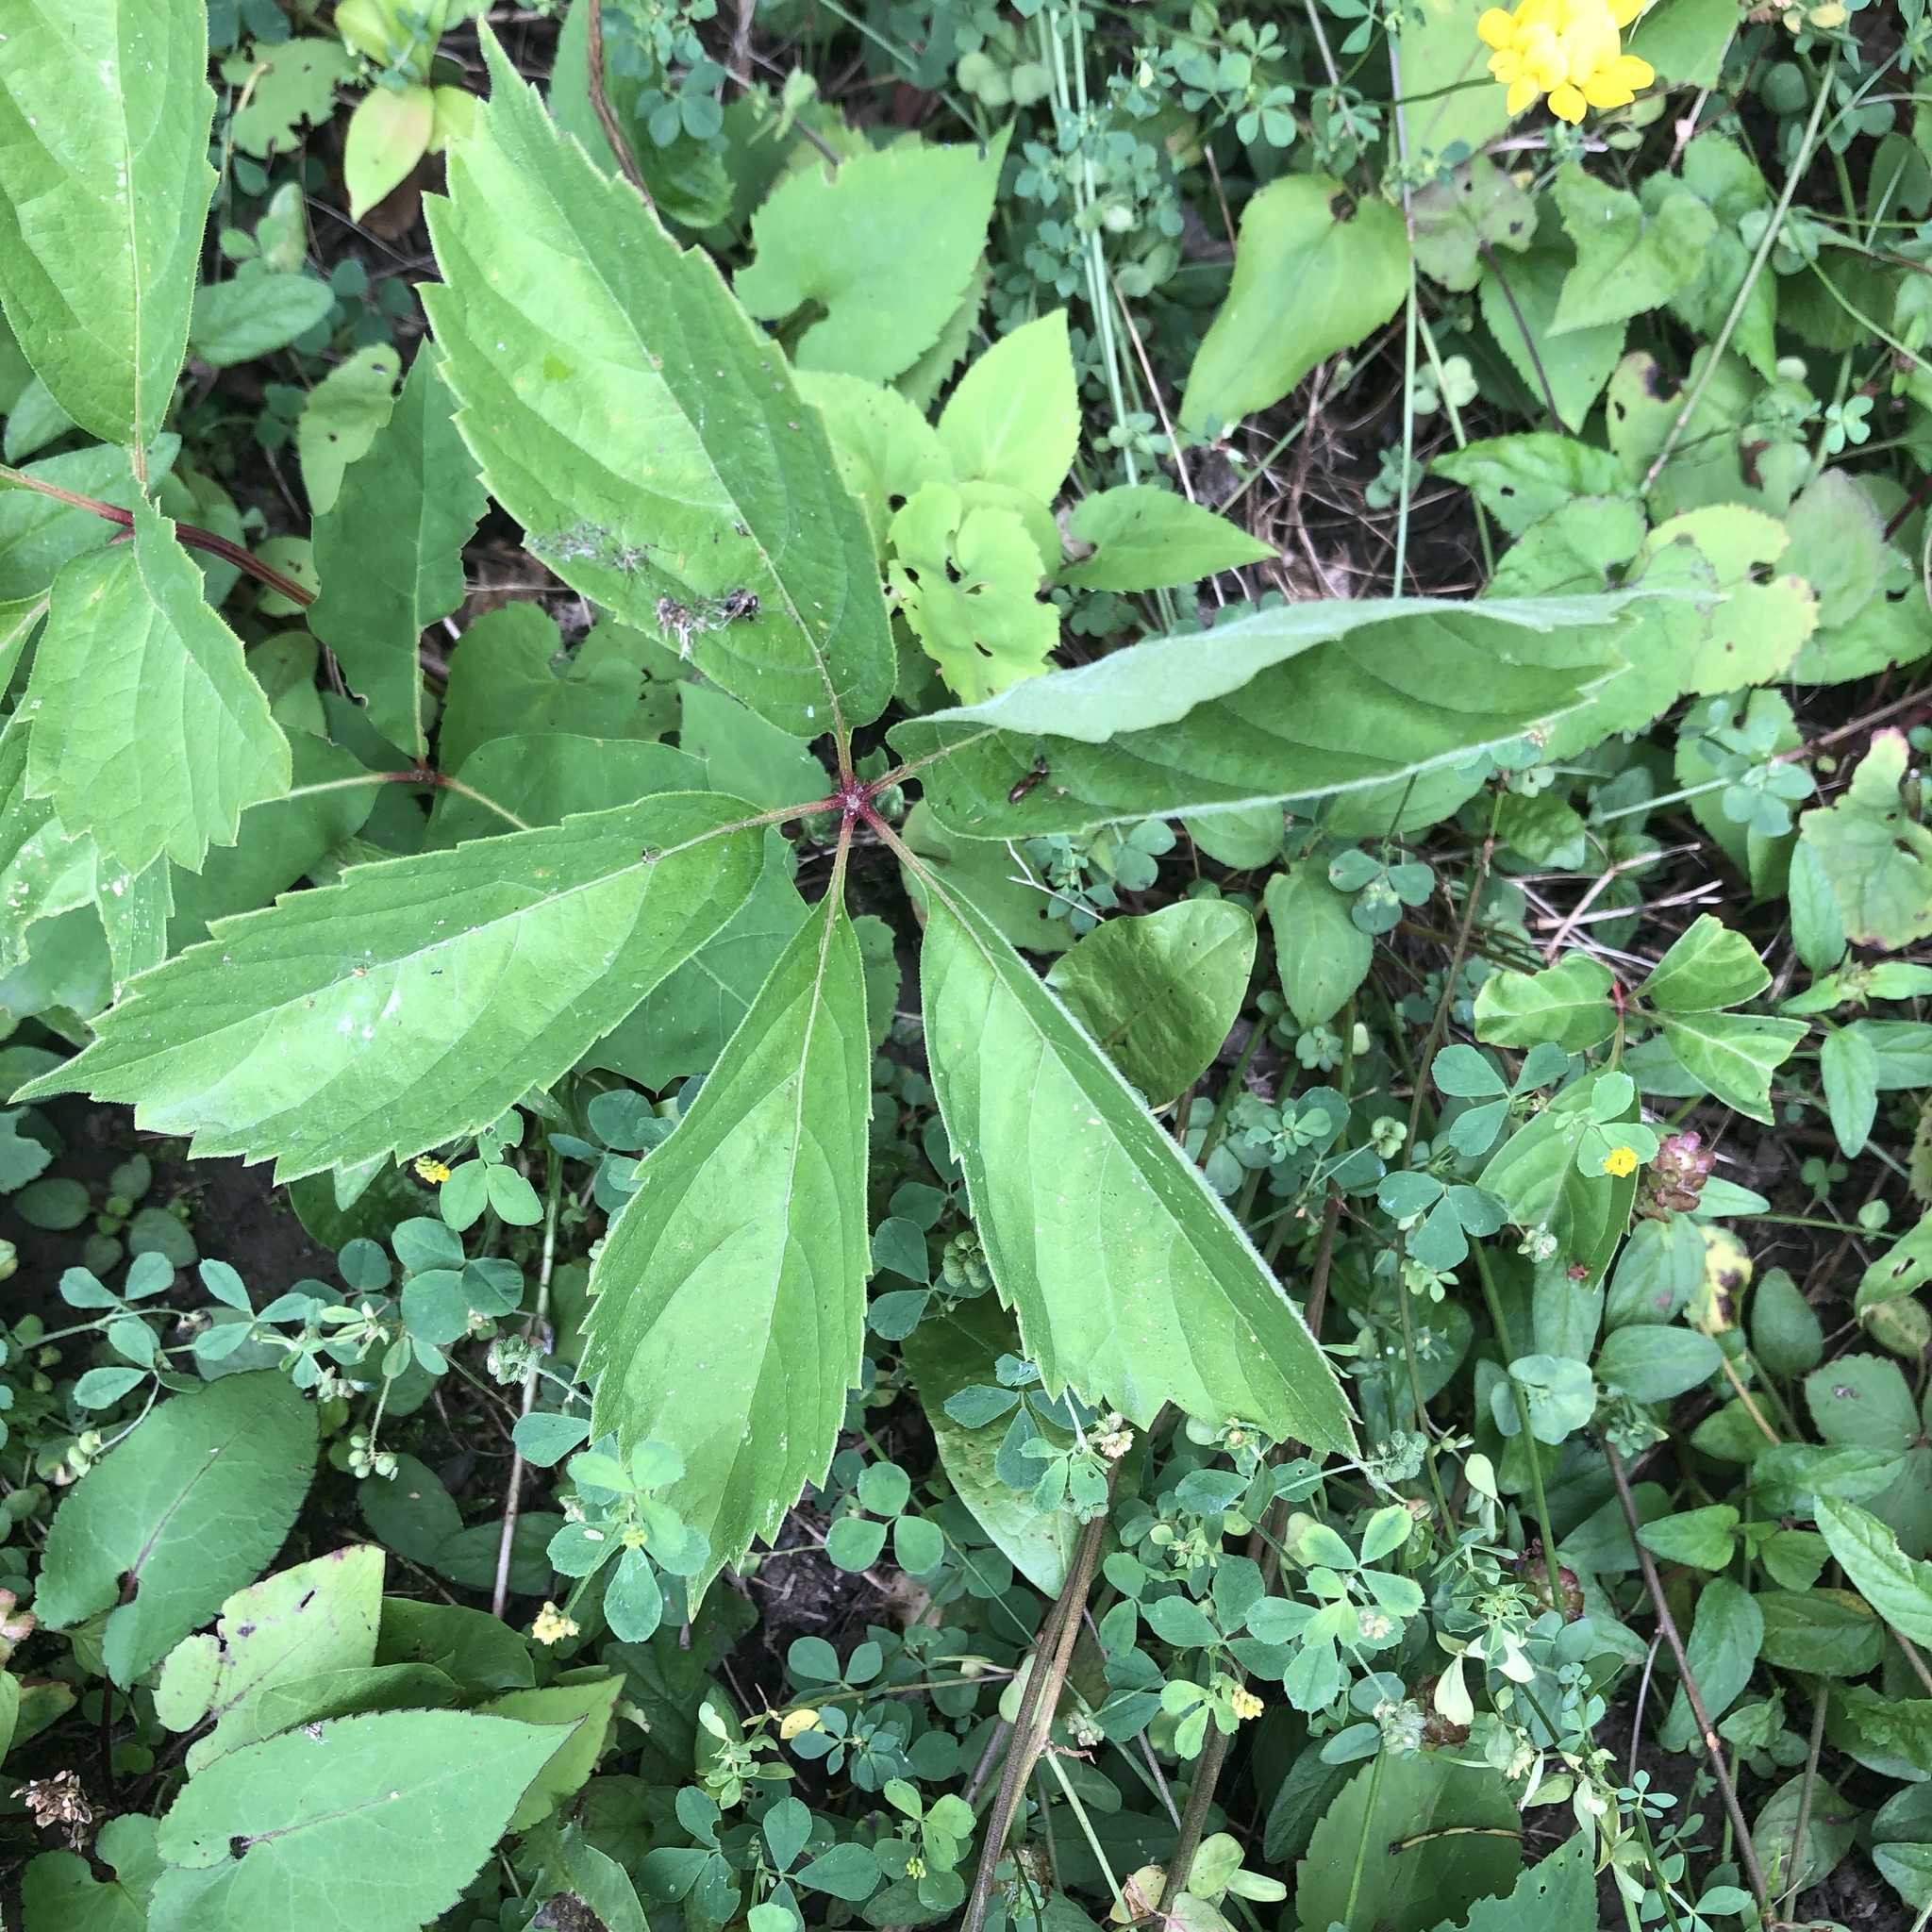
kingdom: Plantae
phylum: Tracheophyta
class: Magnoliopsida
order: Vitales
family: Vitaceae
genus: Parthenocissus
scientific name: Parthenocissus quinquefolia
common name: Virginia-creeper
